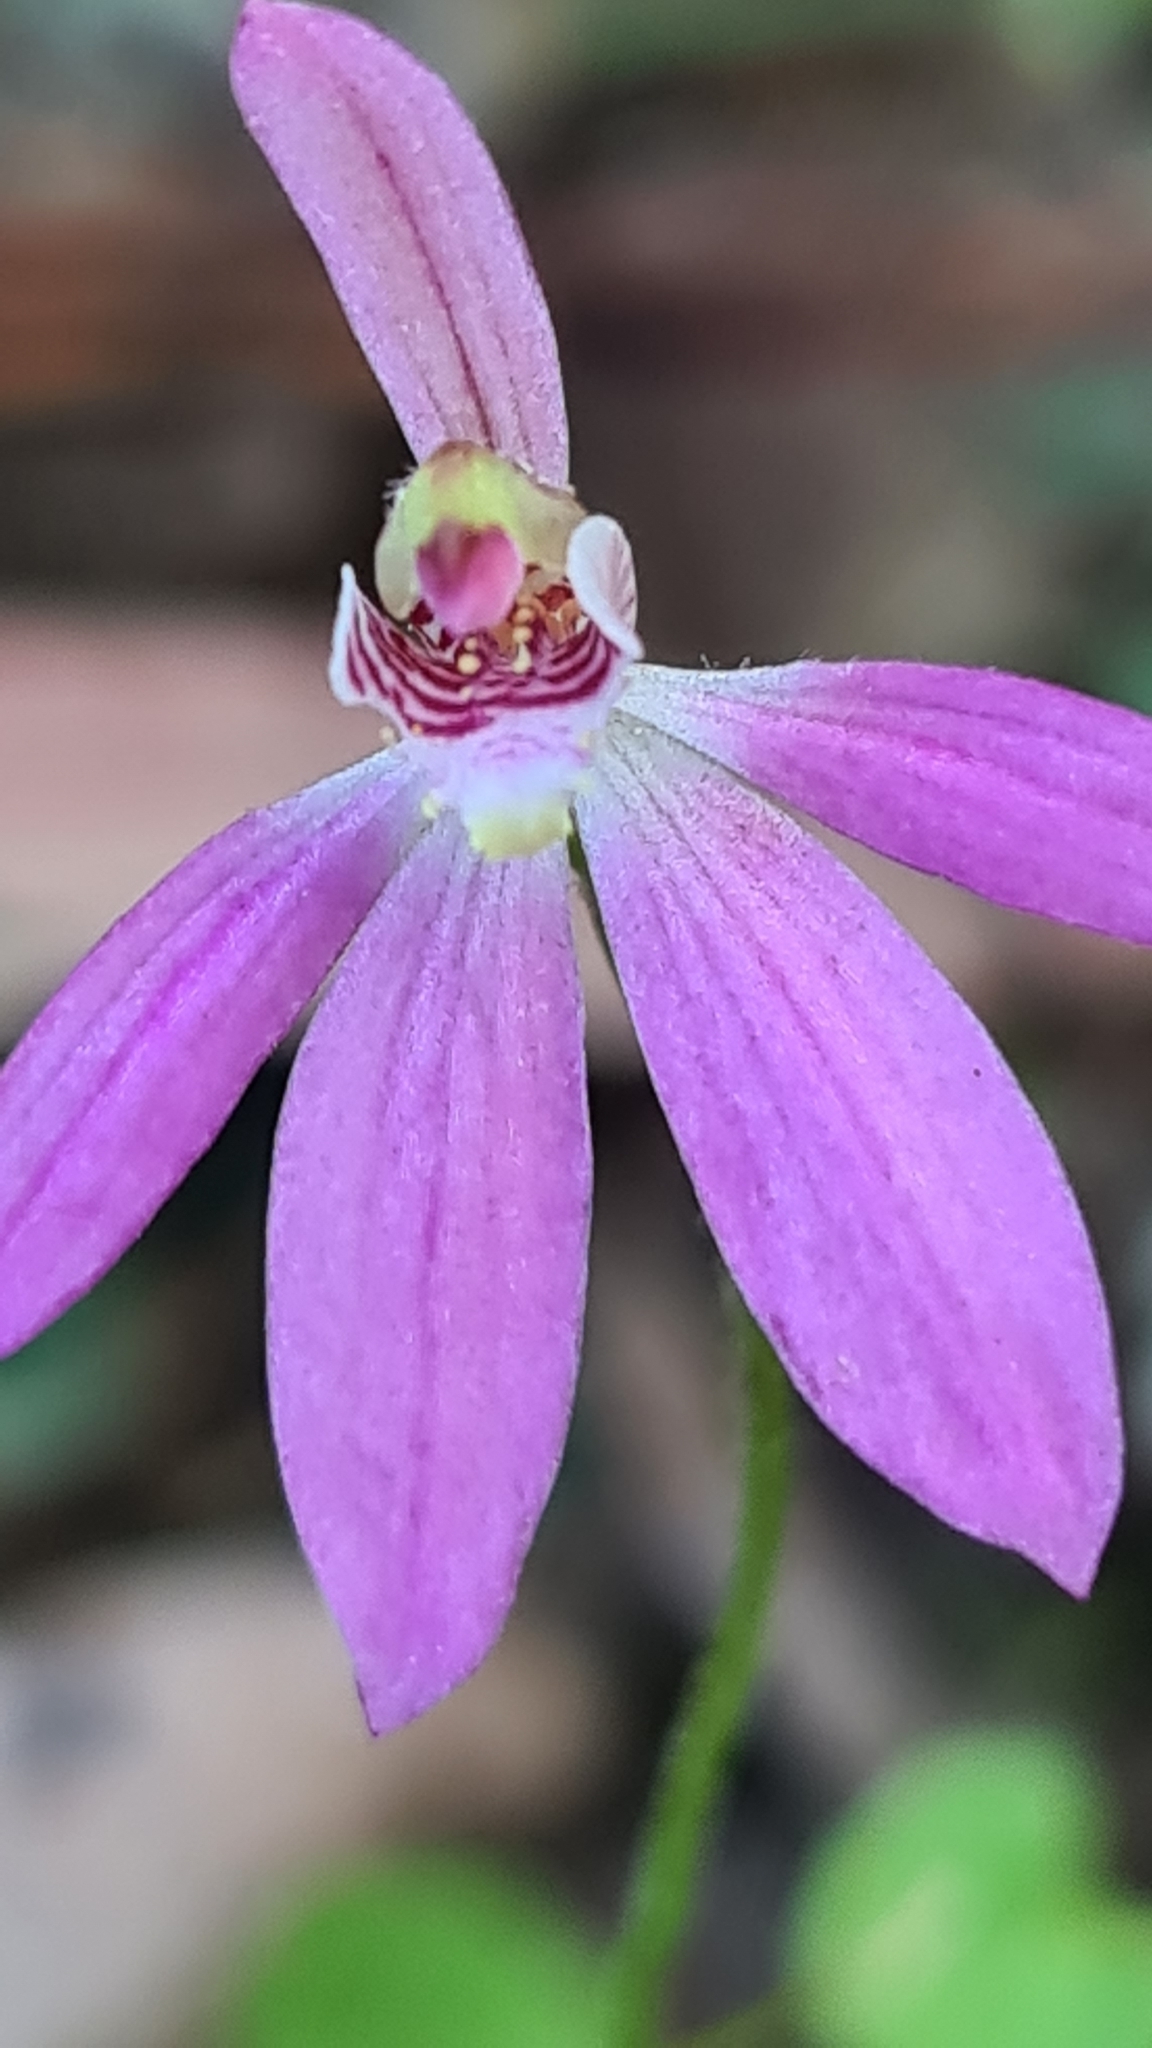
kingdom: Plantae
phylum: Tracheophyta
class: Liliopsida
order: Asparagales
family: Orchidaceae
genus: Caladenia
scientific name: Caladenia carnea
